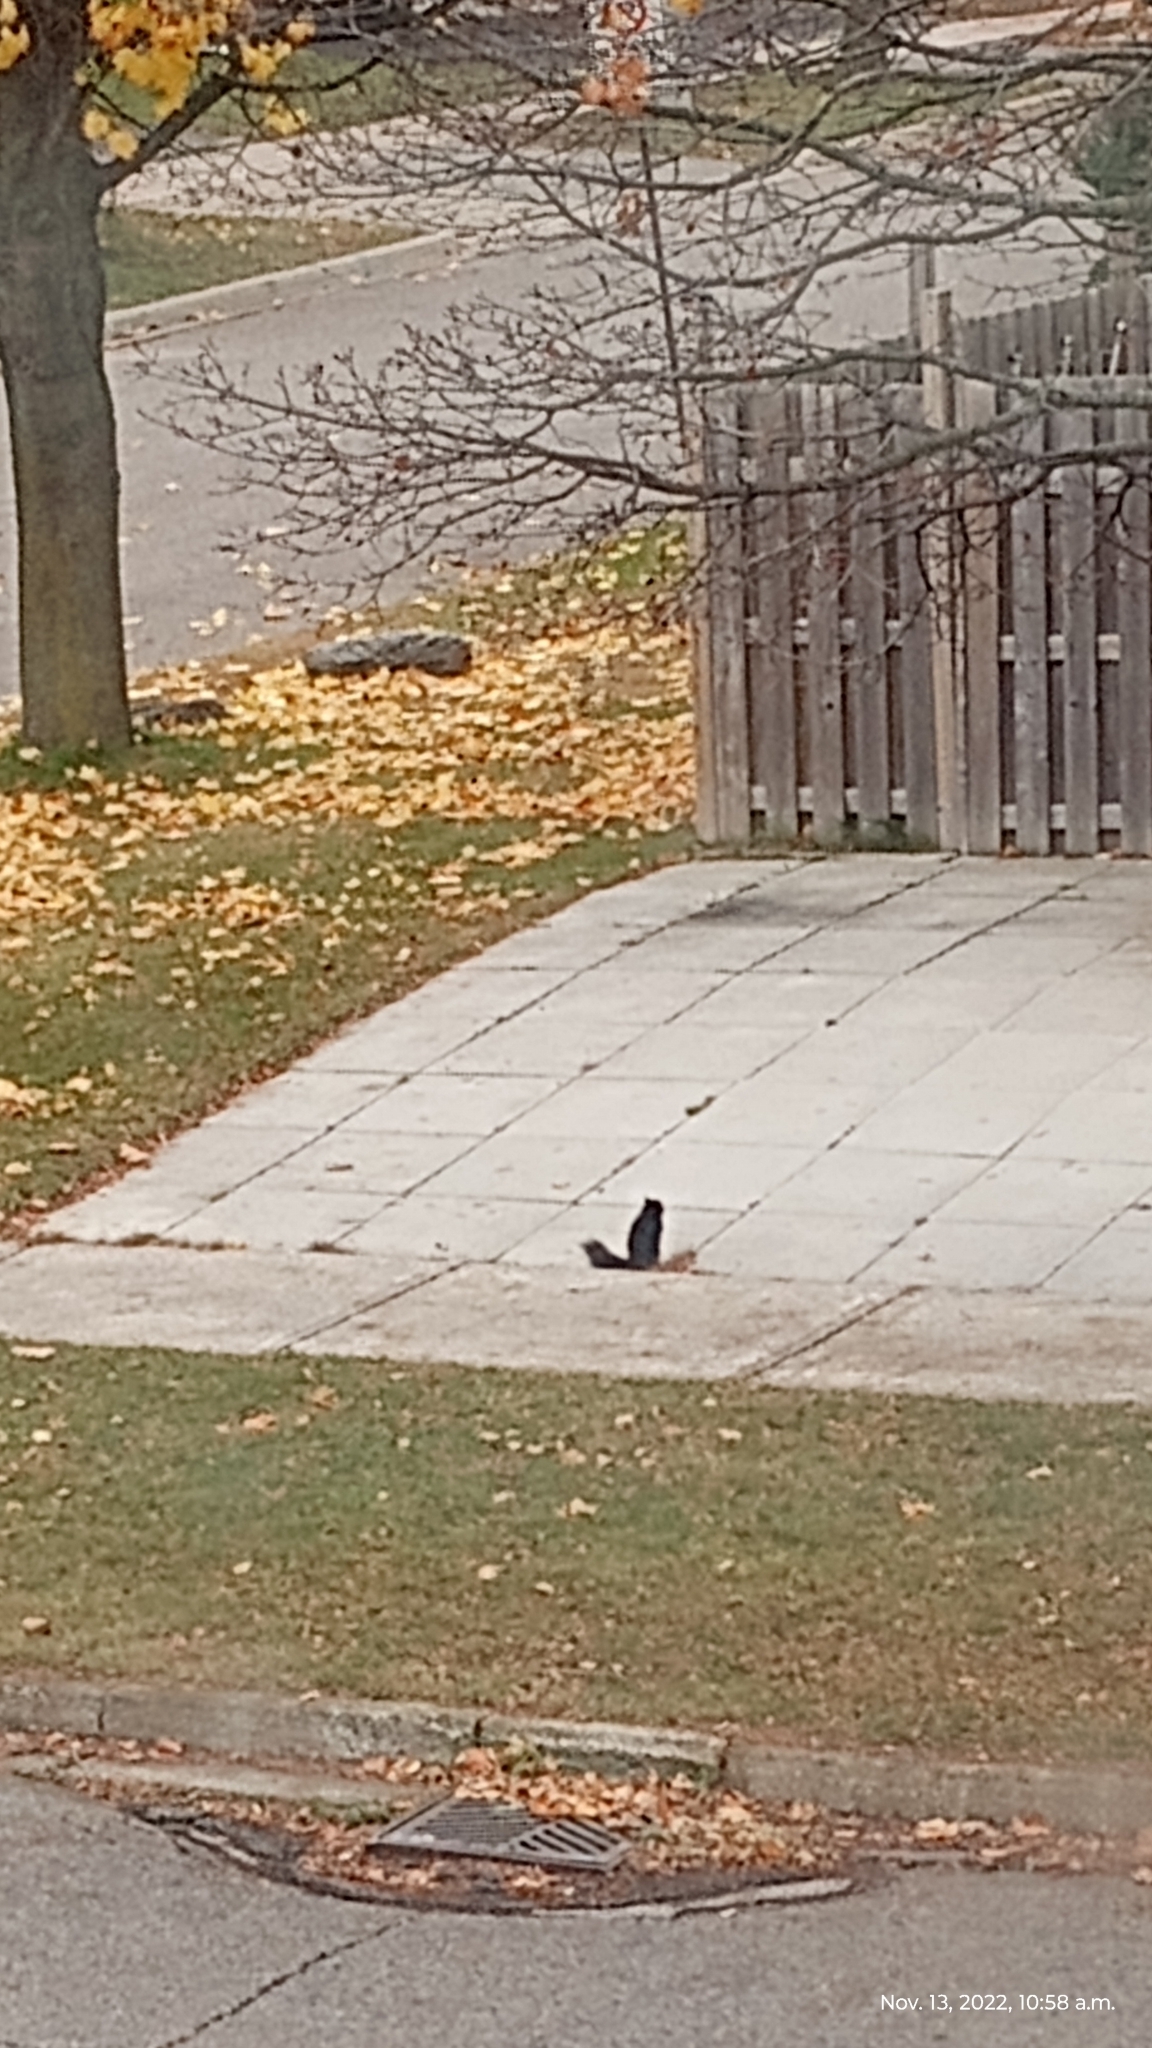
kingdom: Animalia
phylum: Chordata
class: Mammalia
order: Rodentia
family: Sciuridae
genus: Sciurus
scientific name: Sciurus carolinensis
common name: Eastern gray squirrel
